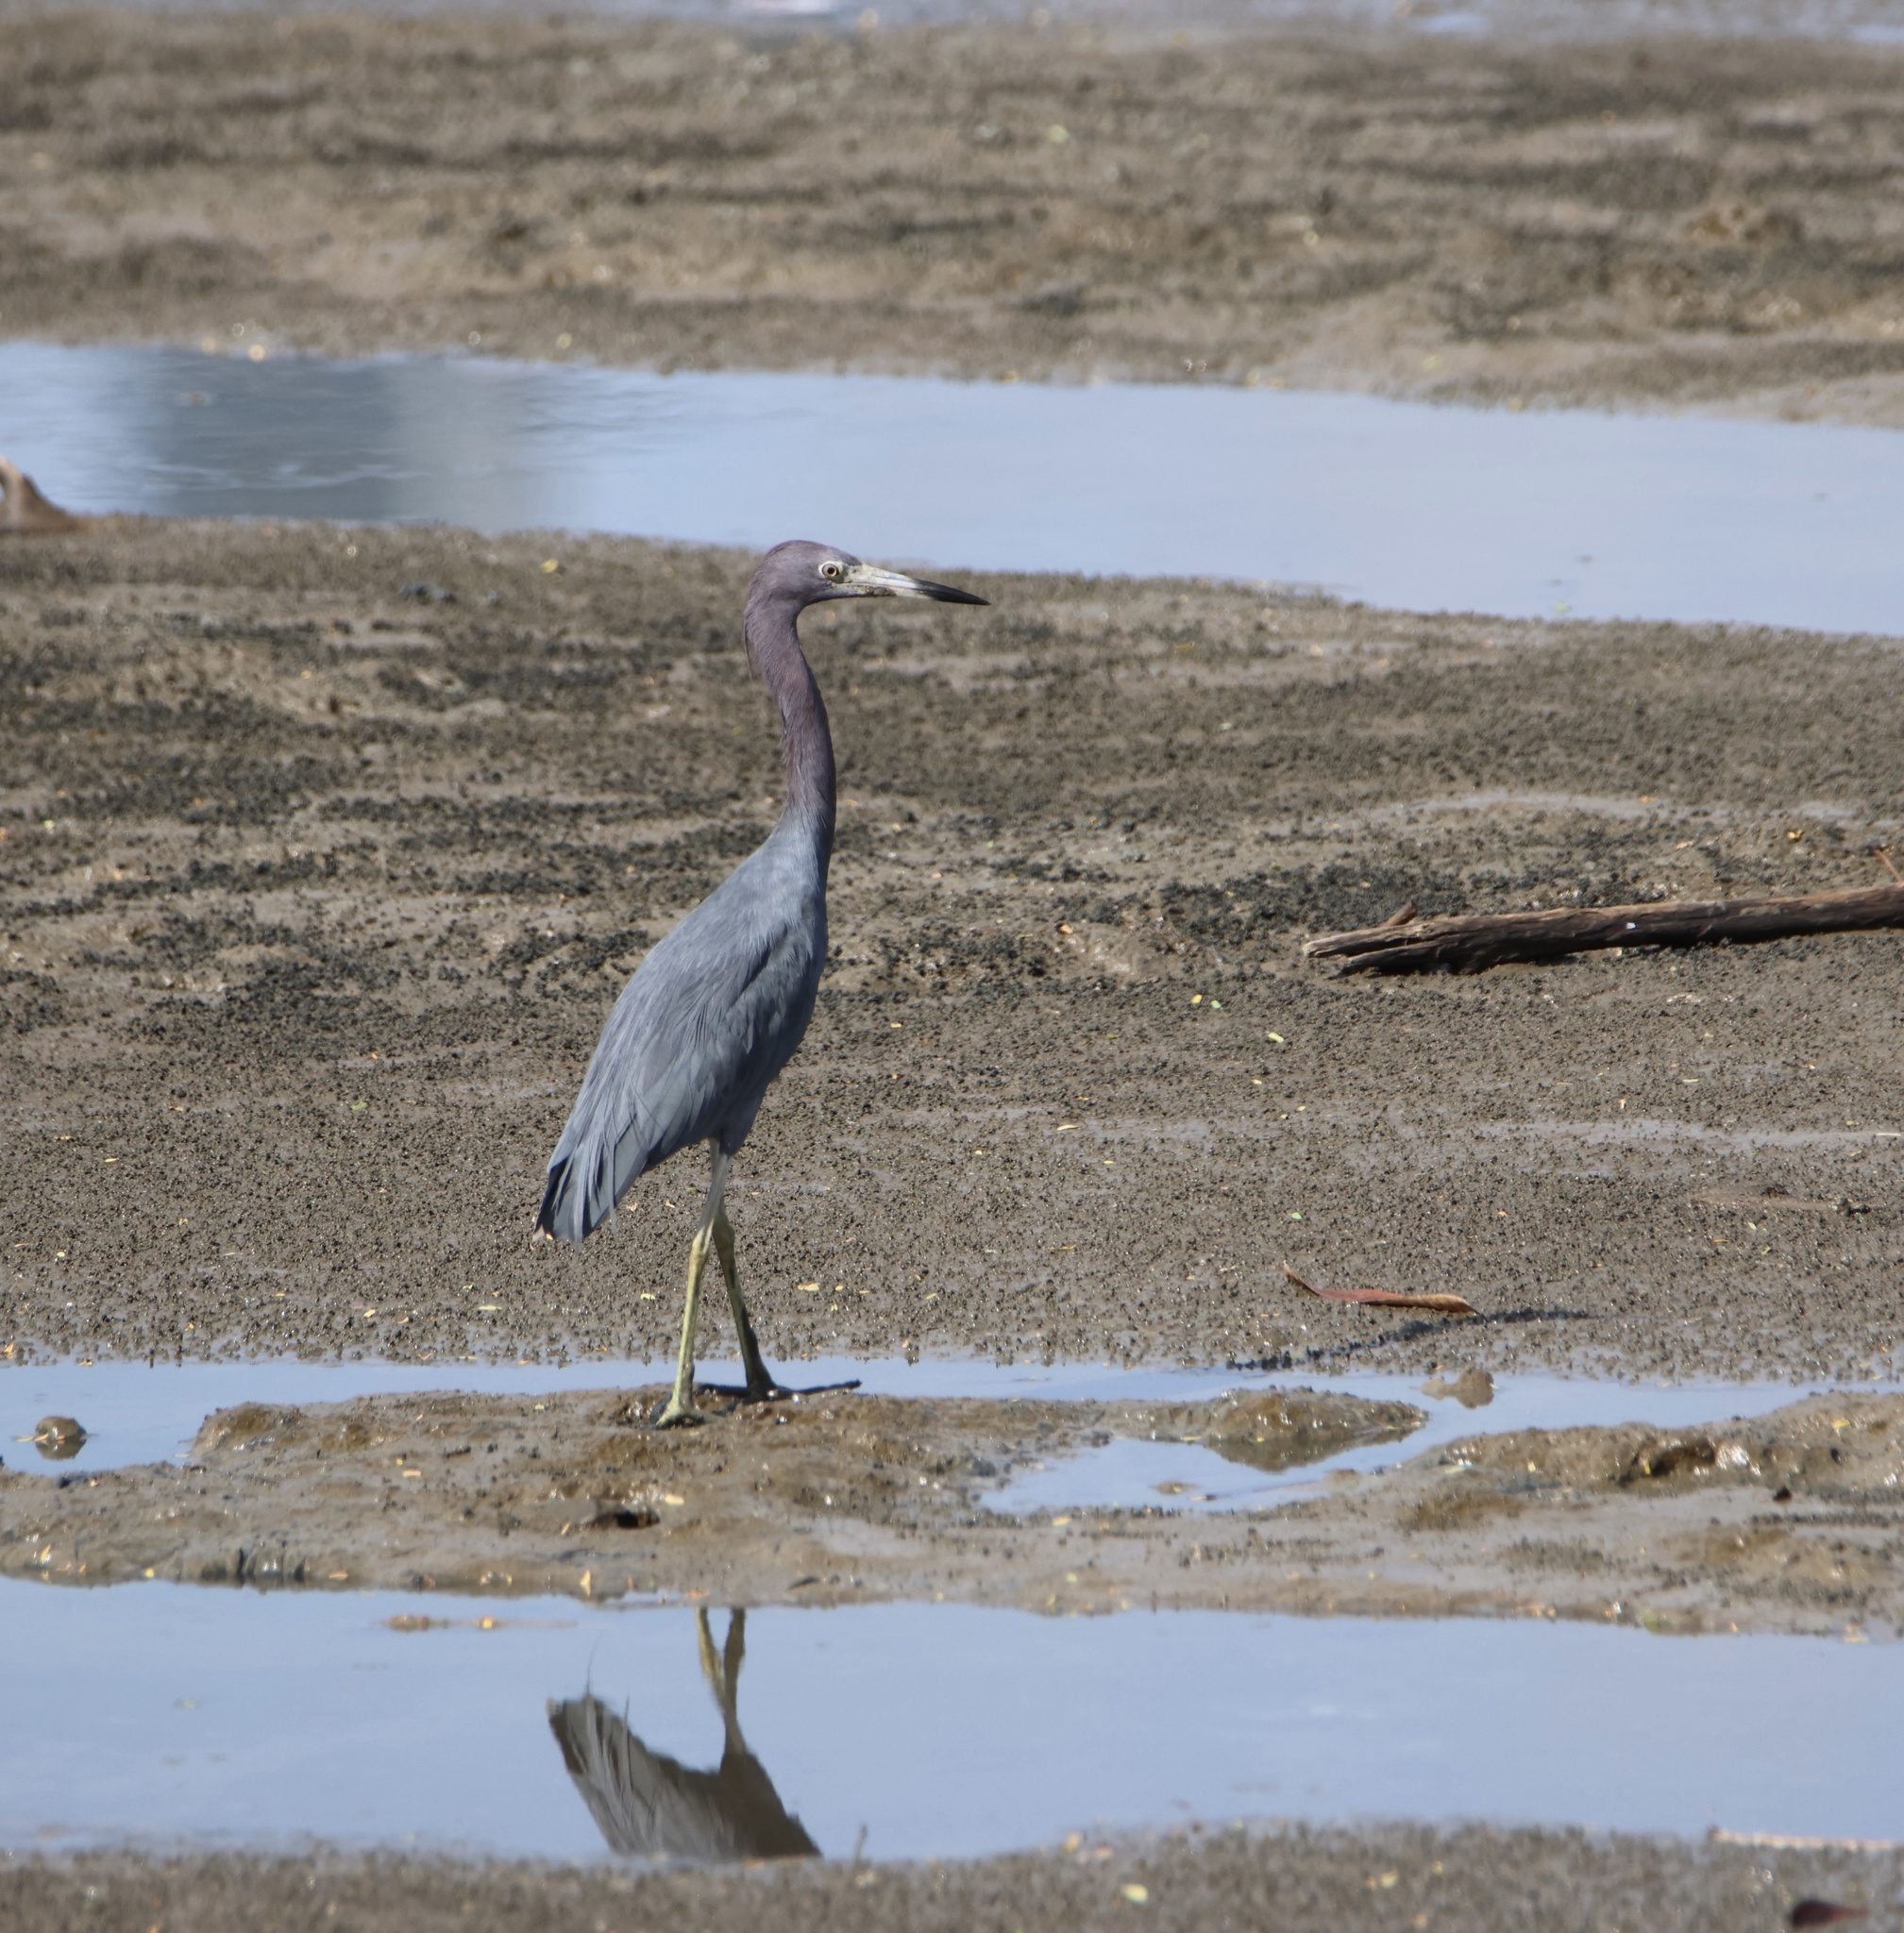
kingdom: Animalia
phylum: Chordata
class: Aves
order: Pelecaniformes
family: Ardeidae
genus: Egretta
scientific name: Egretta caerulea
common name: Little blue heron
